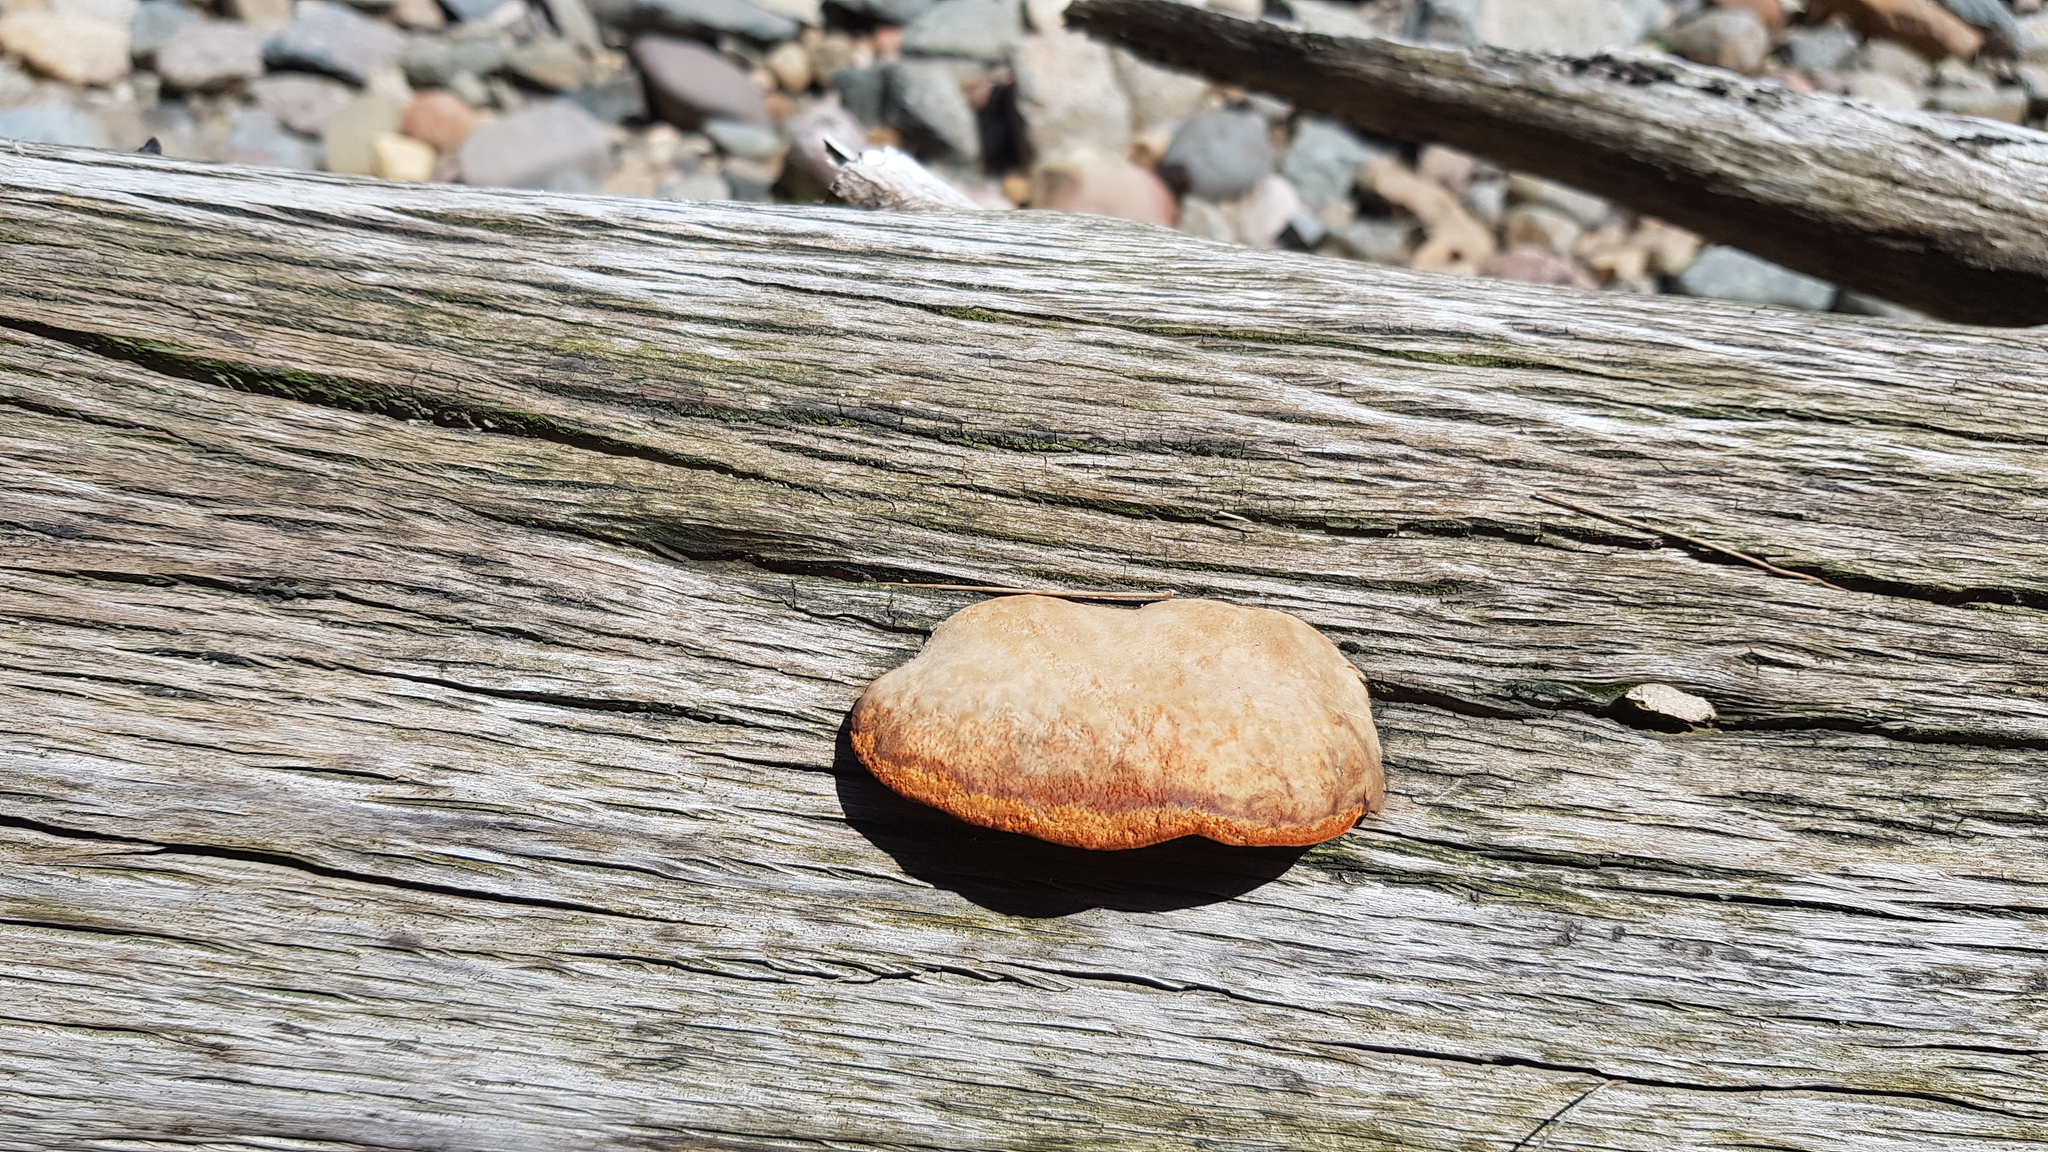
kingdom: Fungi
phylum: Basidiomycota
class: Agaricomycetes
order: Polyporales
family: Polyporaceae
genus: Trametes
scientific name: Trametes coccinea
